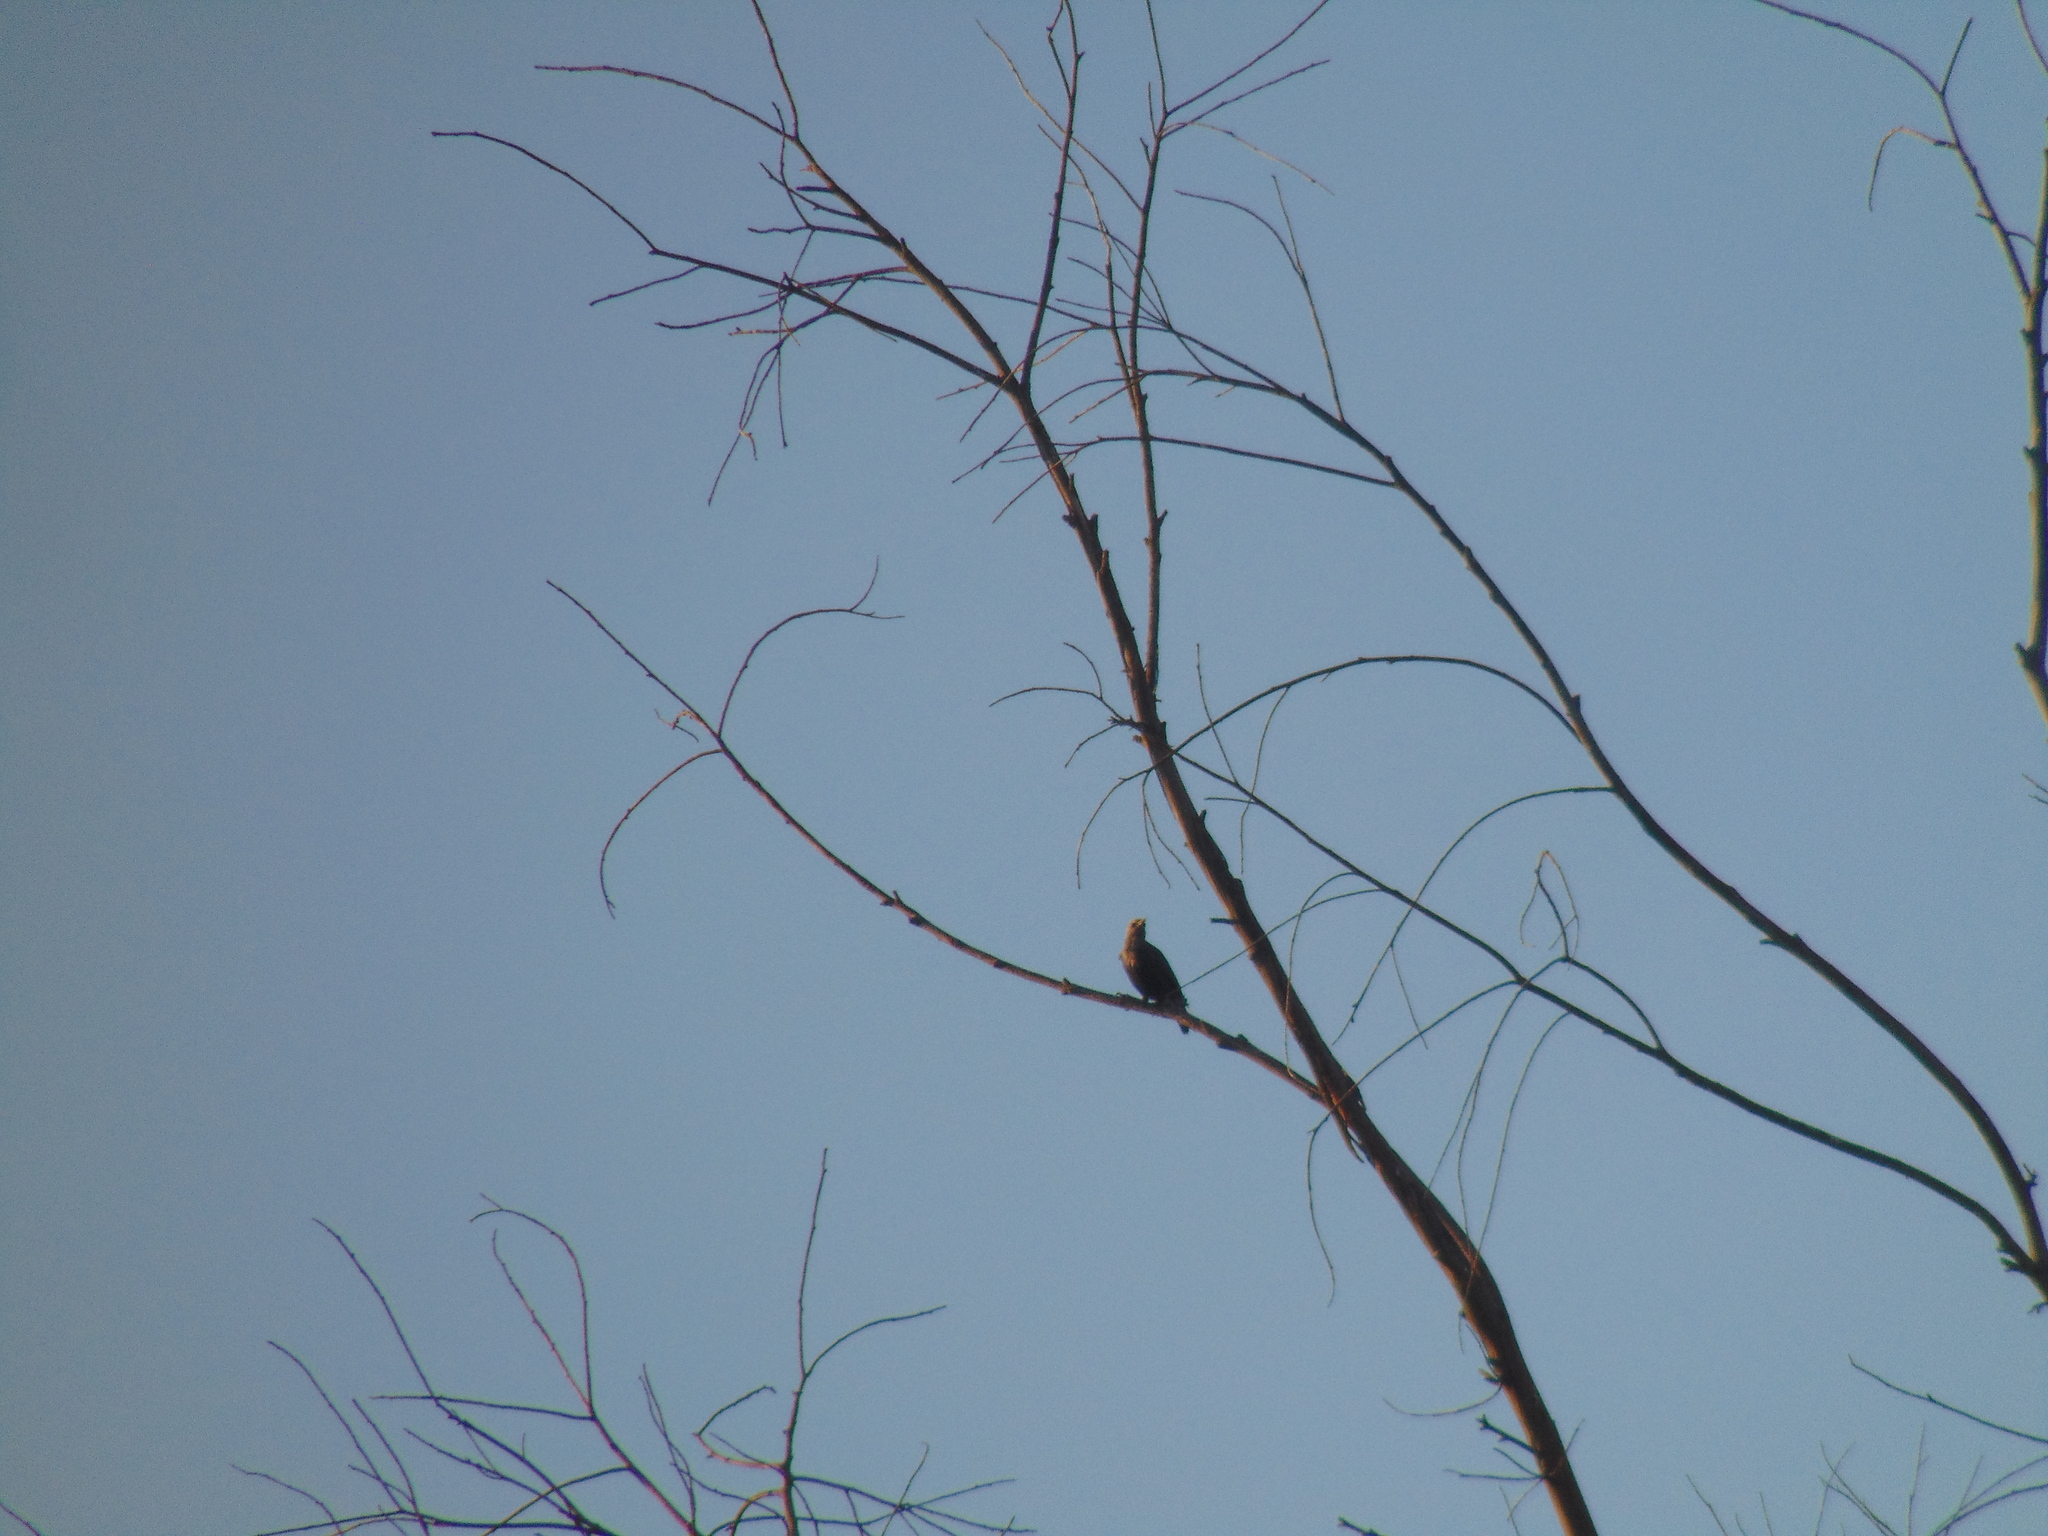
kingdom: Animalia
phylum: Chordata
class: Aves
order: Passeriformes
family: Sturnidae
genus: Sturnus
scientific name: Sturnus unicolor
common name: Spotless starling
